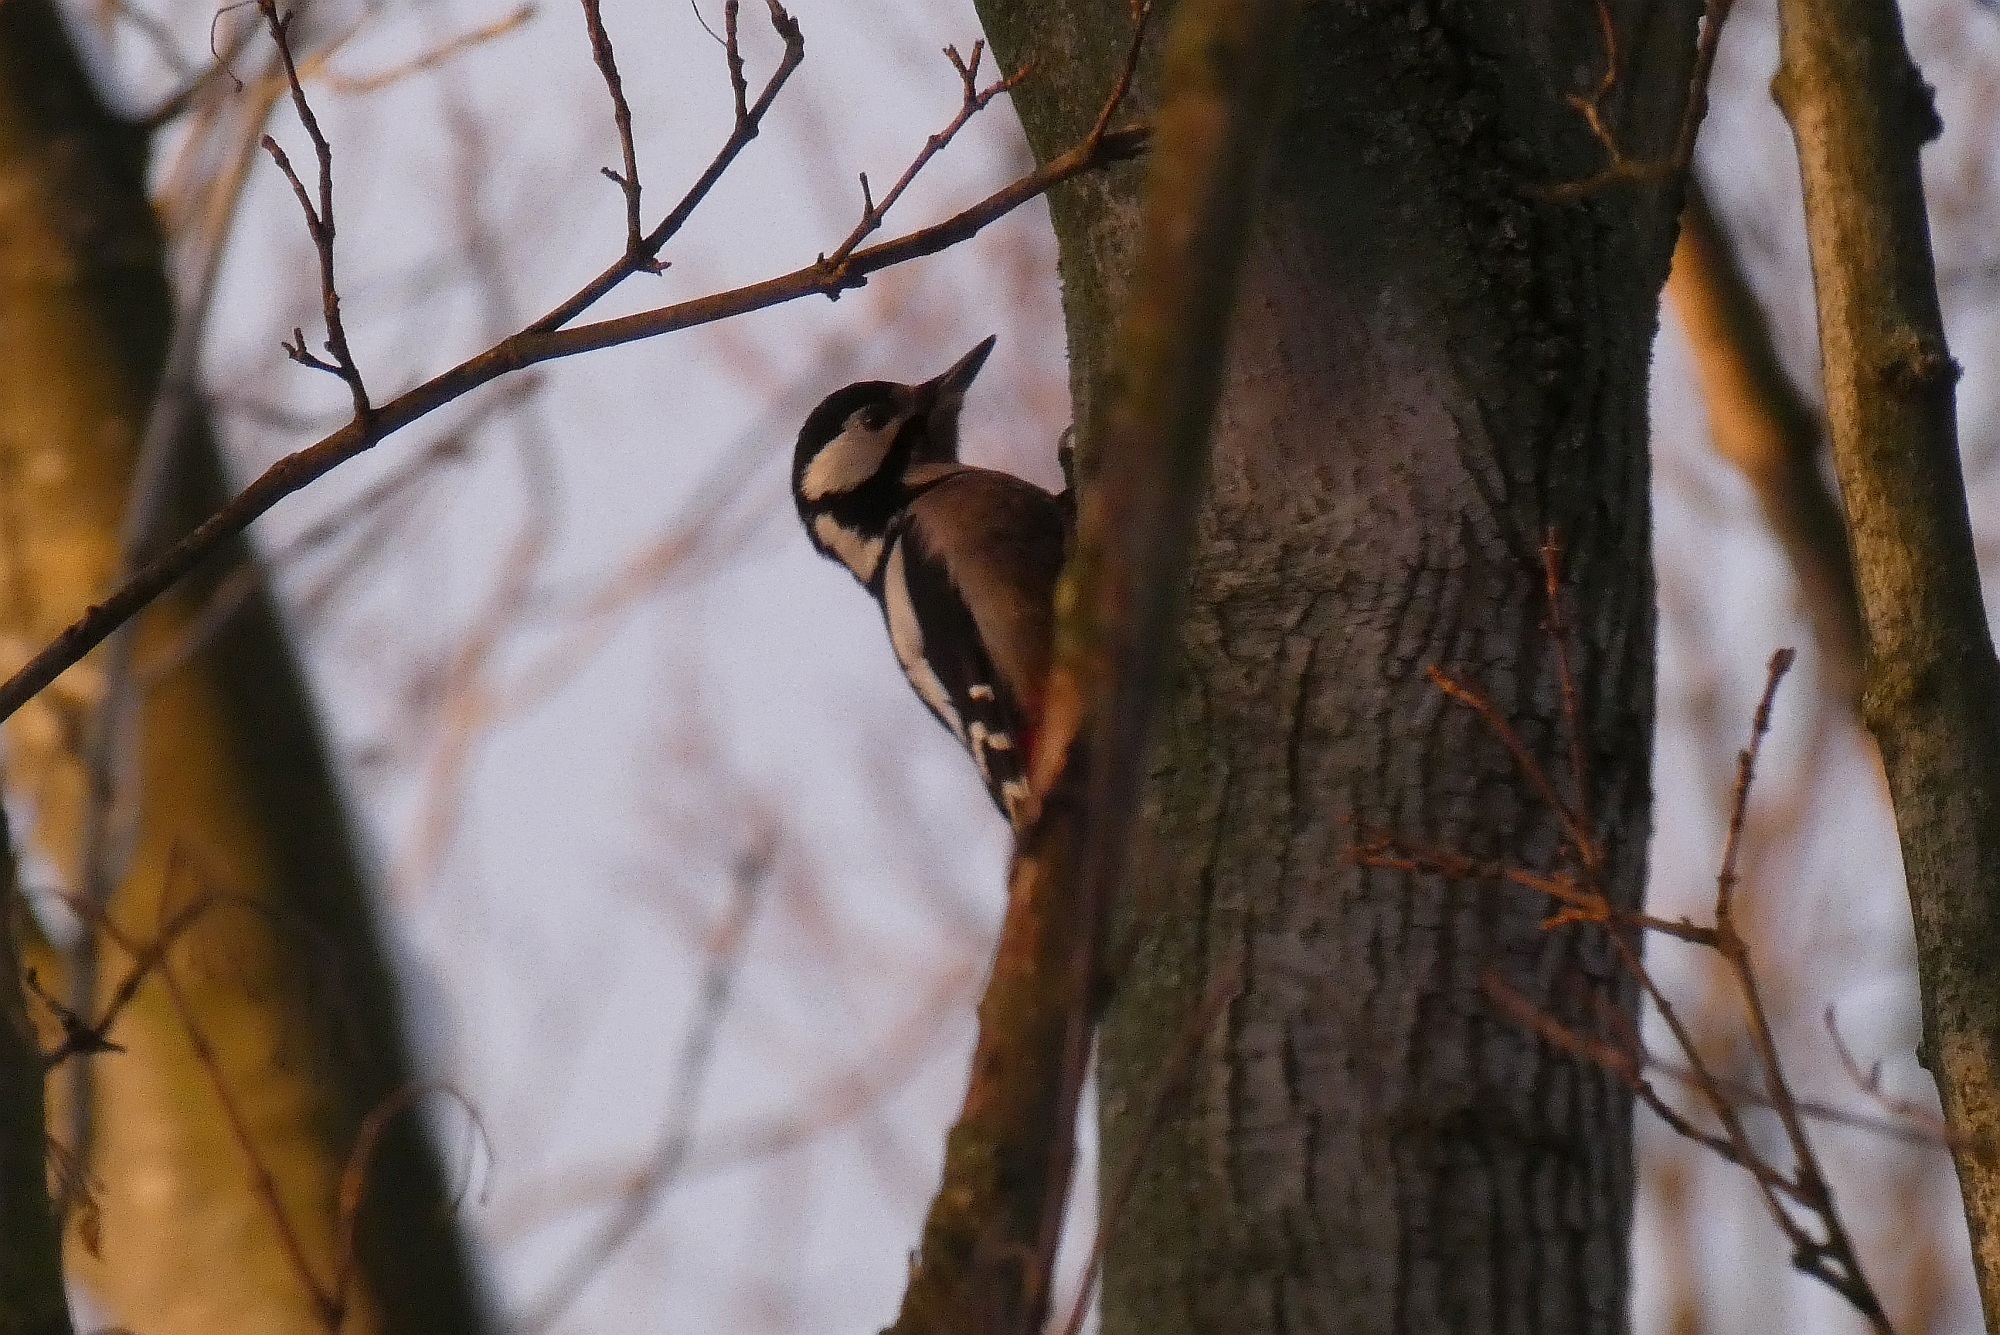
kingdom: Animalia
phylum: Chordata
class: Aves
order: Piciformes
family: Picidae
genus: Dendrocopos
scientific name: Dendrocopos major
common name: Great spotted woodpecker
